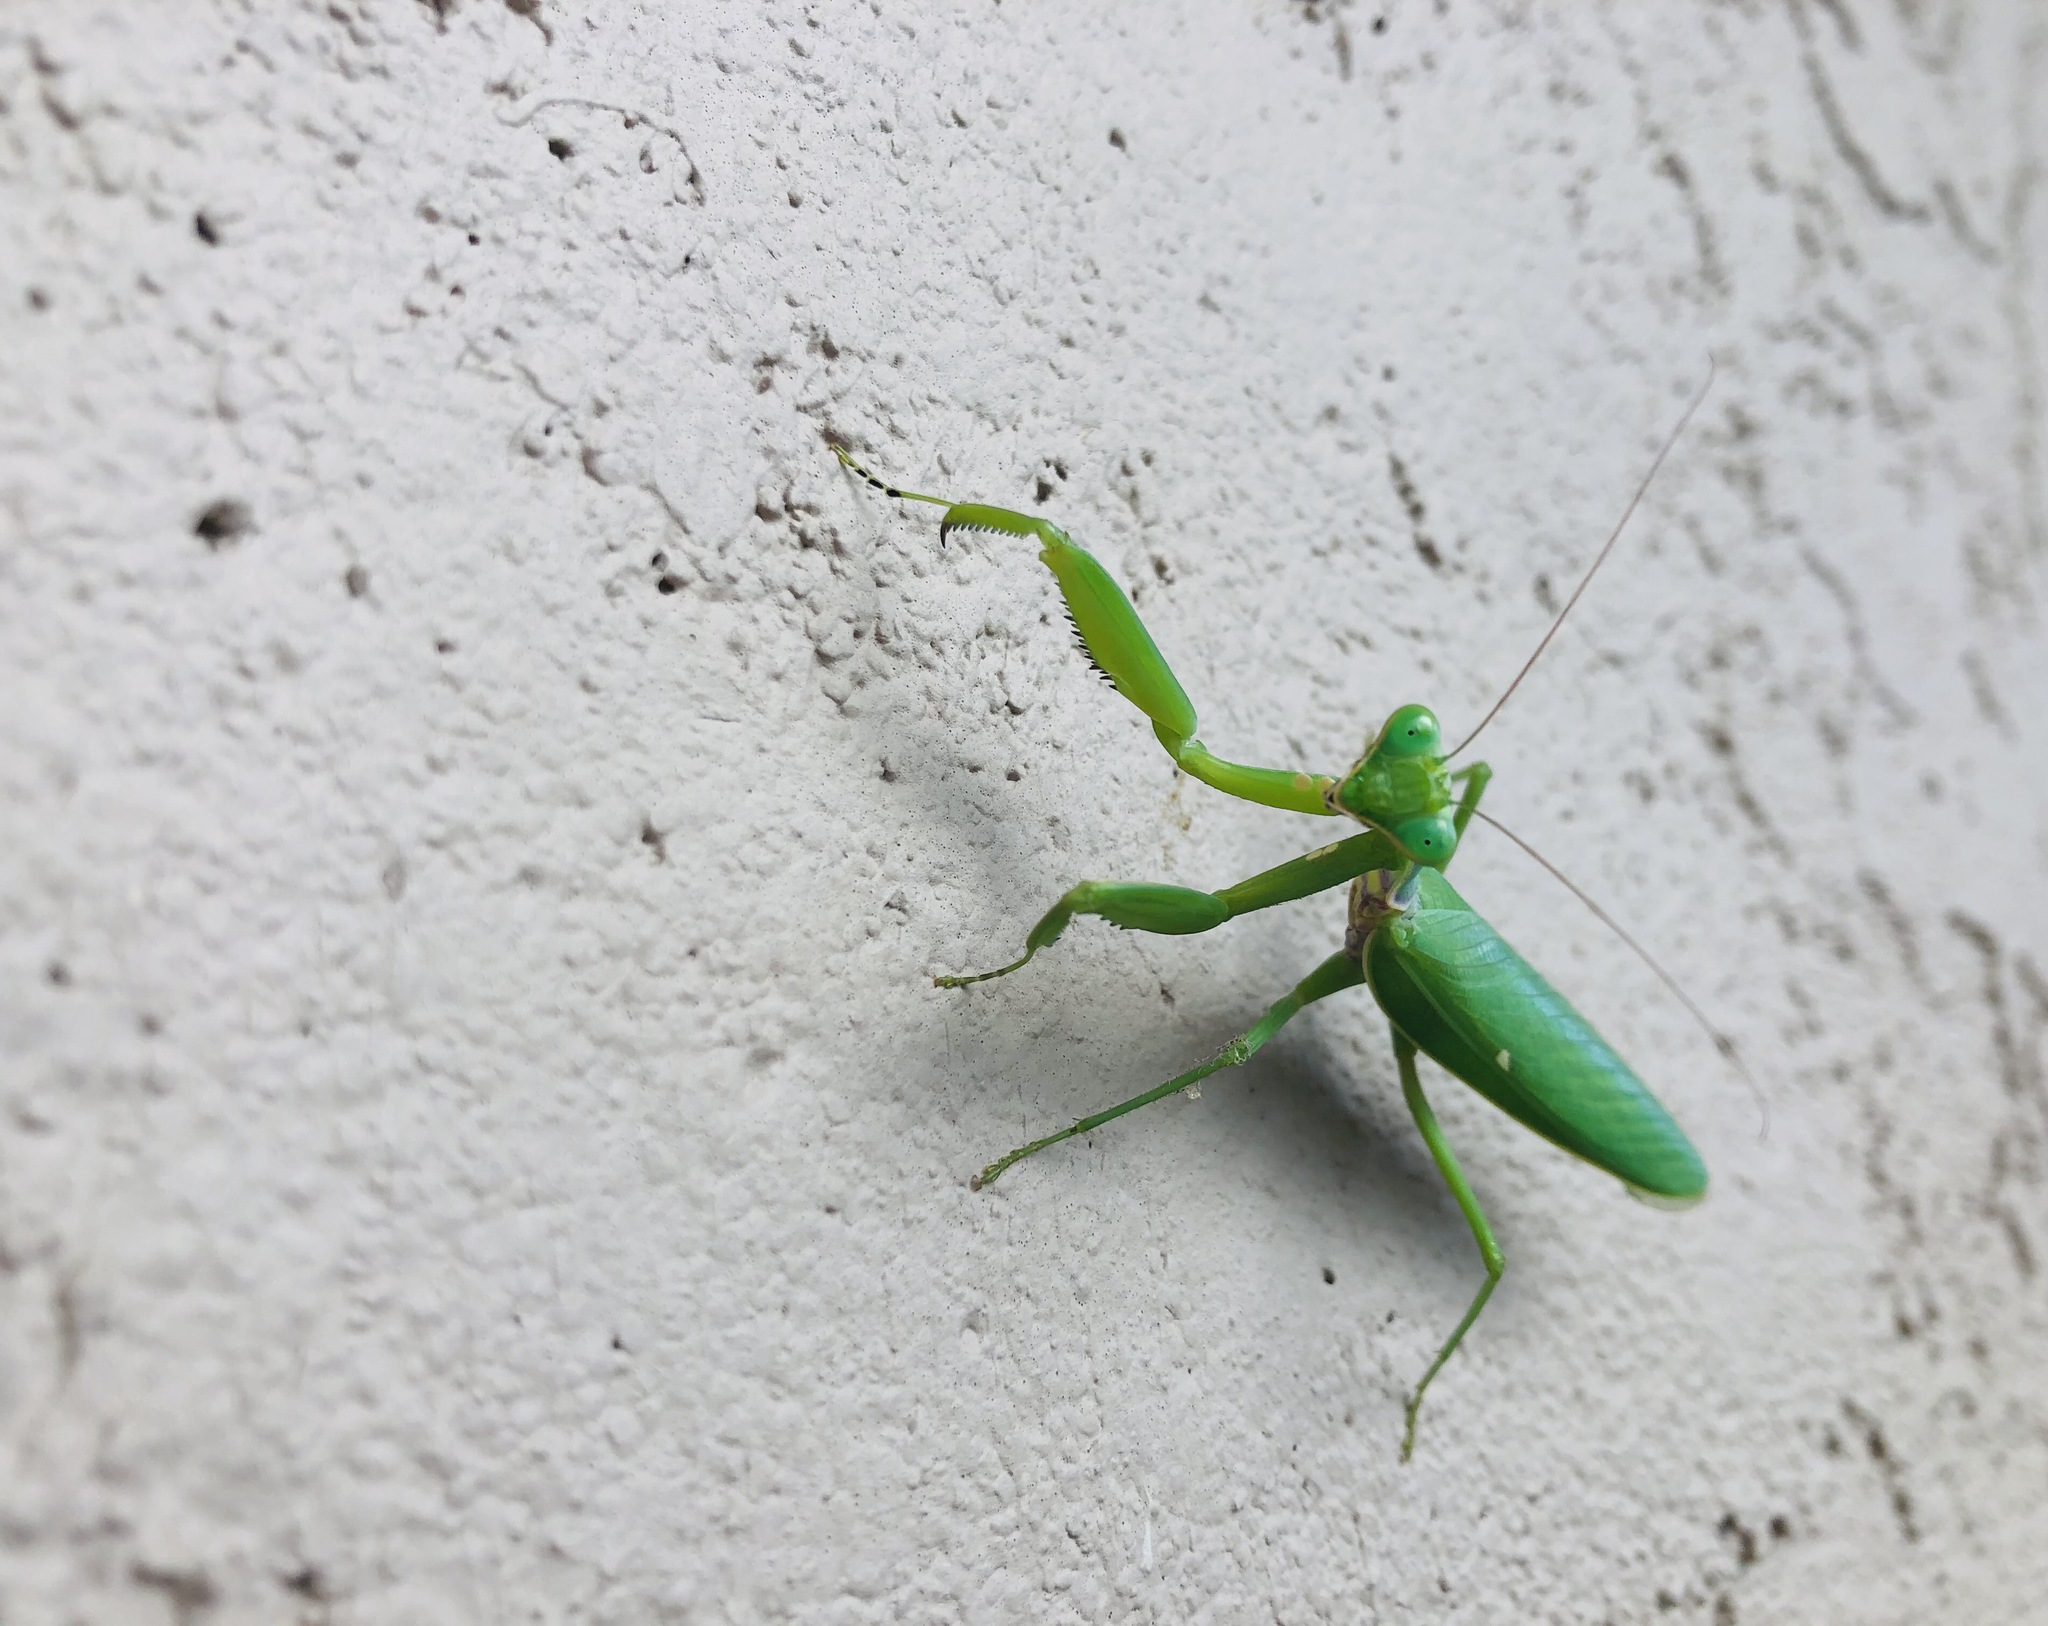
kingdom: Animalia
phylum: Arthropoda
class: Insecta
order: Mantodea
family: Mantidae
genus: Hierodula
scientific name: Hierodula patellifera
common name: Asian mantis
